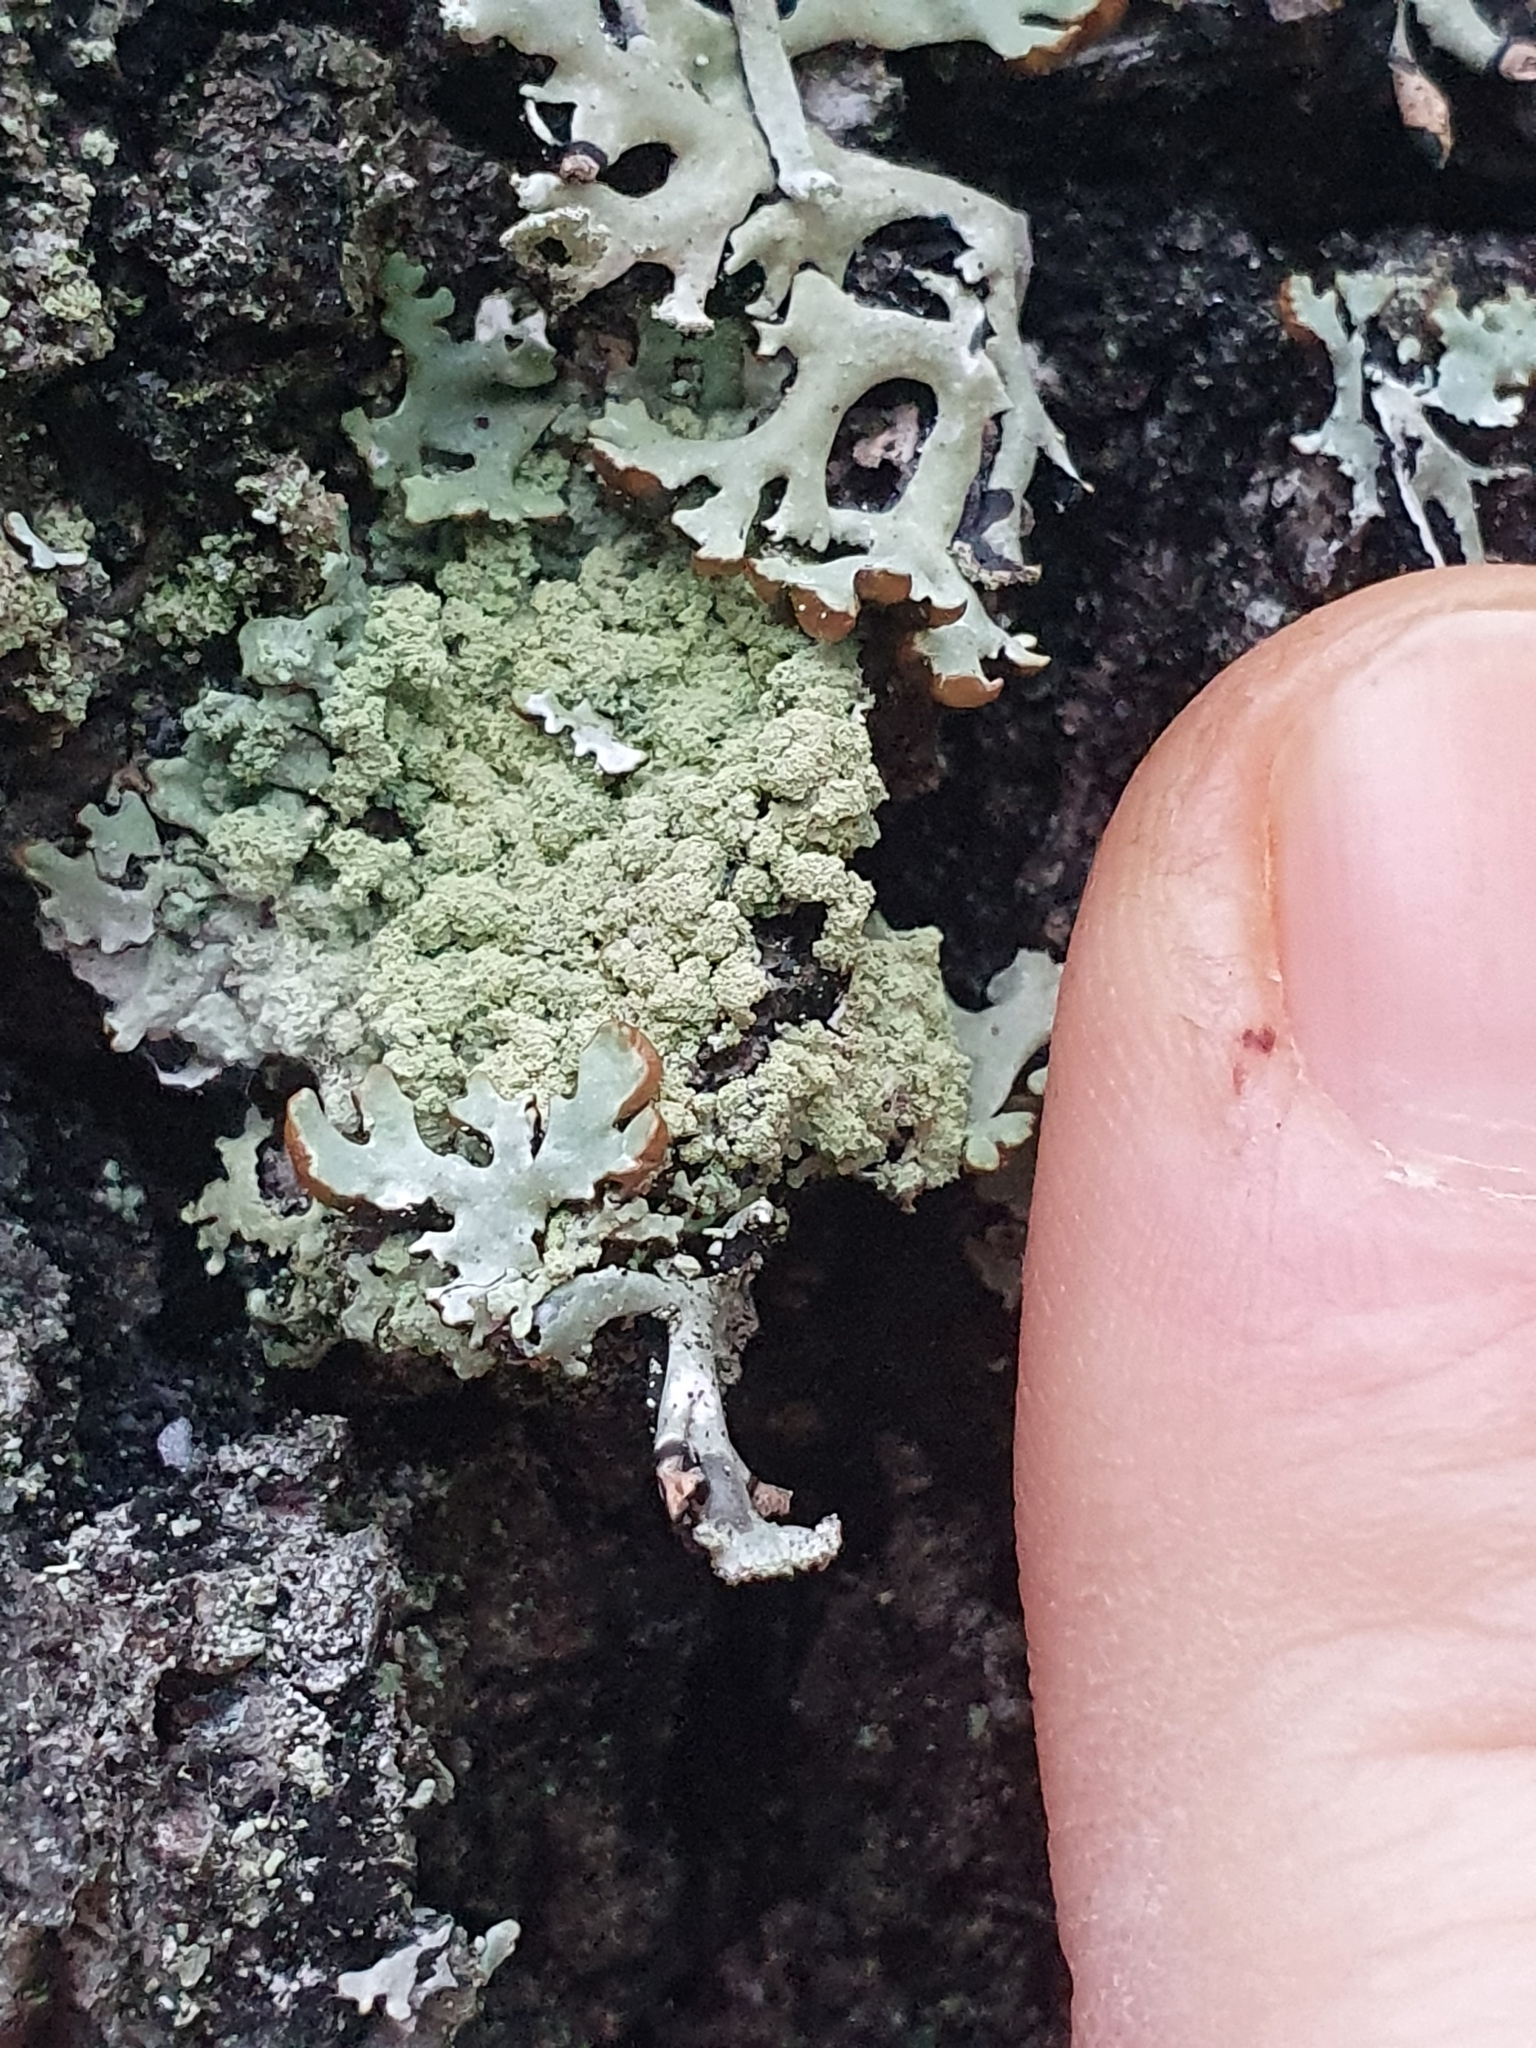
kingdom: Fungi
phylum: Ascomycota
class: Lecanoromycetes
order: Lecanorales
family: Parmeliaceae
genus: Parmeliopsis
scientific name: Parmeliopsis ambigua
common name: Green starburst lichen
